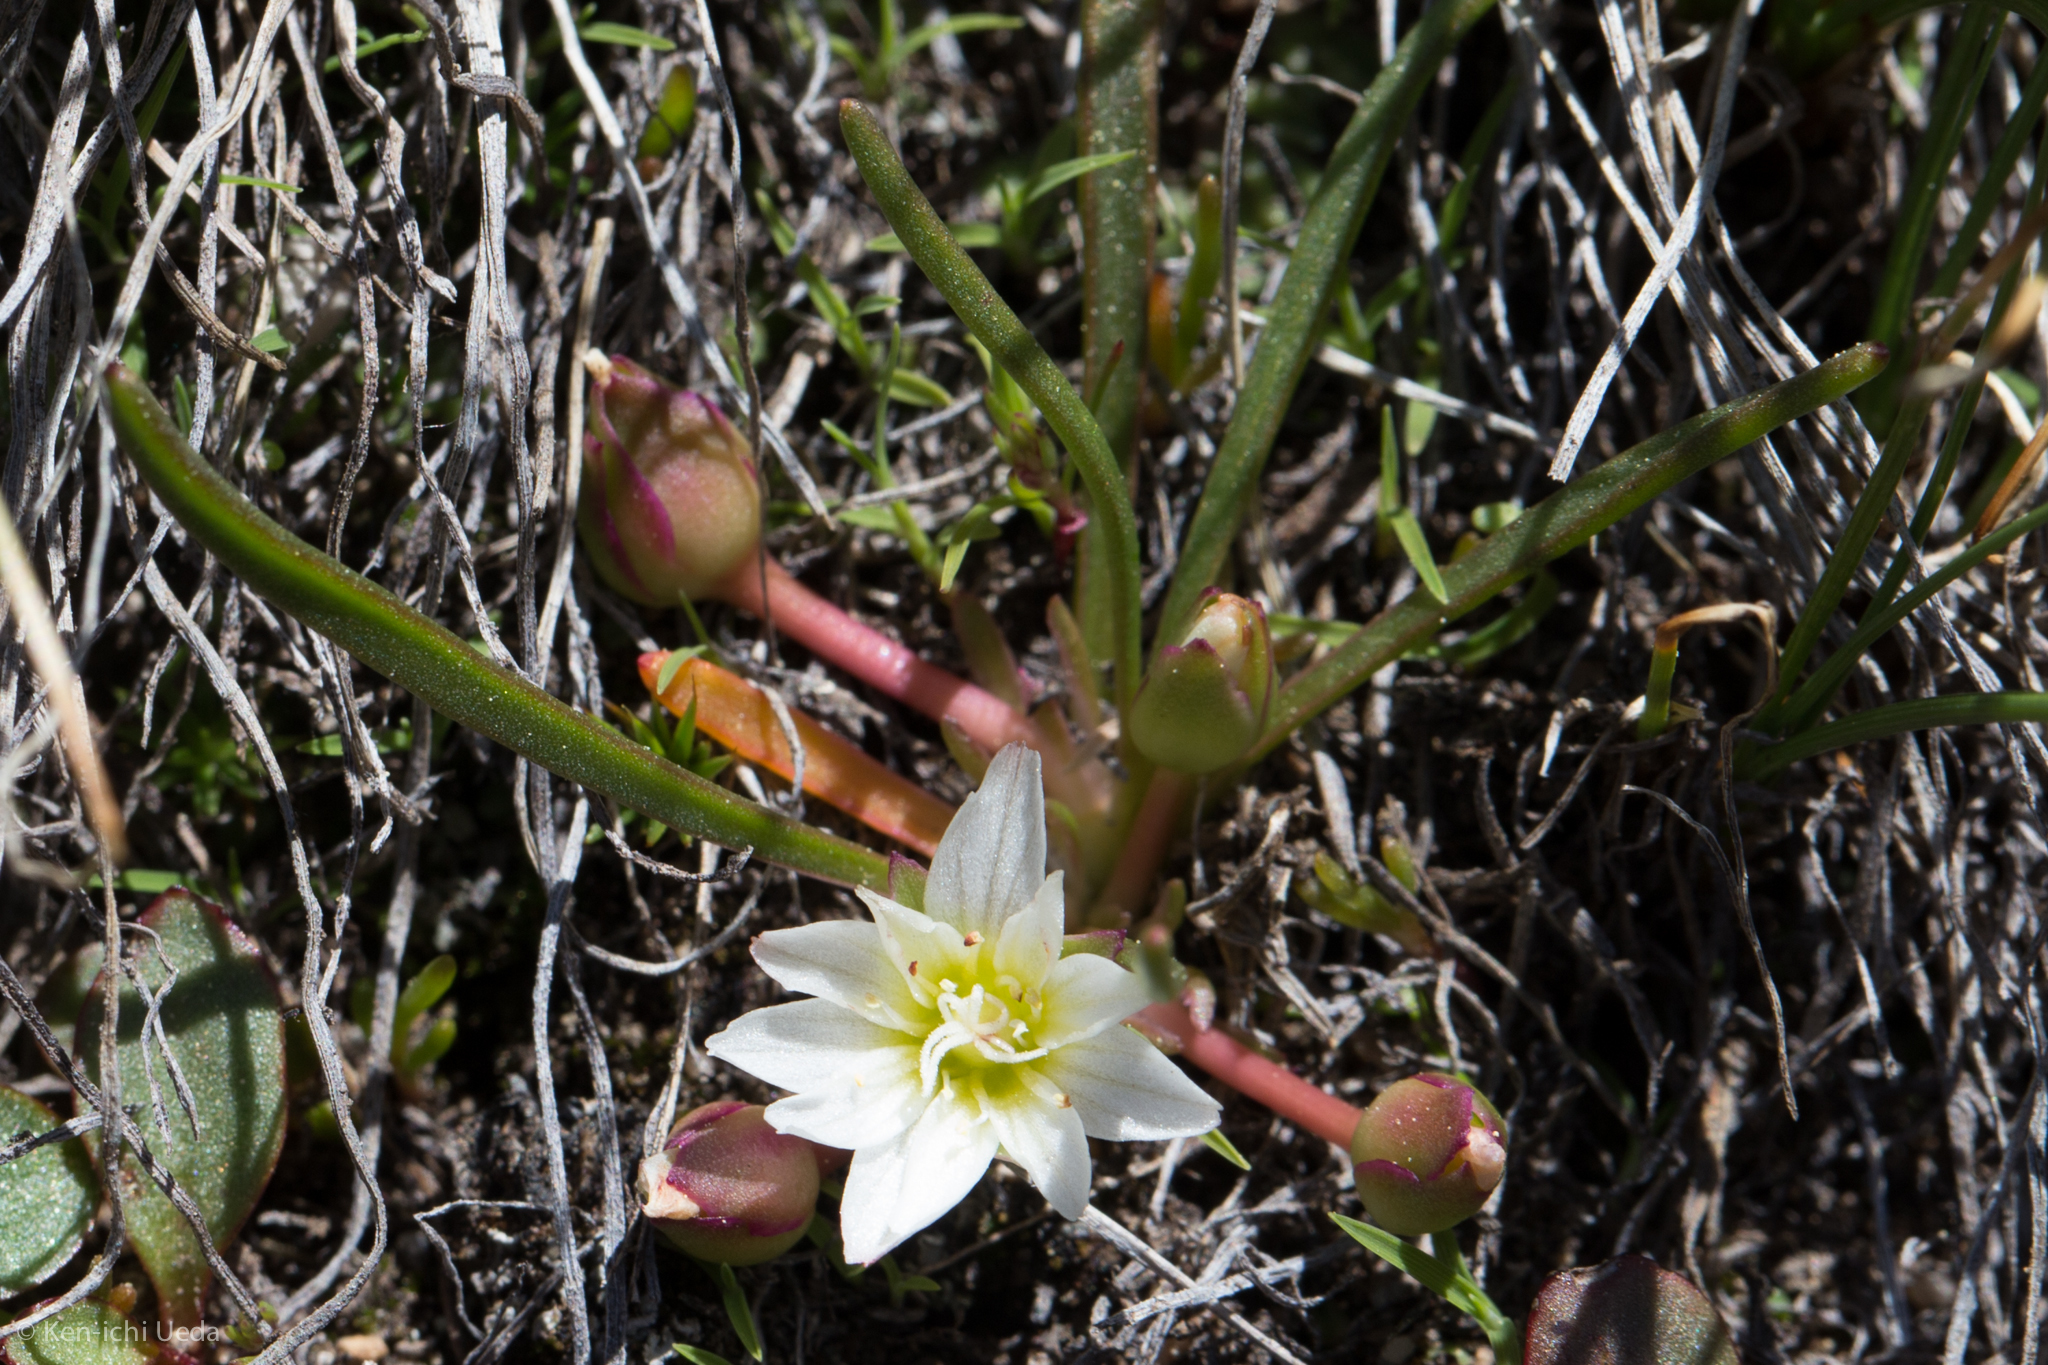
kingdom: Plantae
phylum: Tracheophyta
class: Magnoliopsida
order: Caryophyllales
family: Montiaceae
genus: Lewisia
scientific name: Lewisia nevadensis
